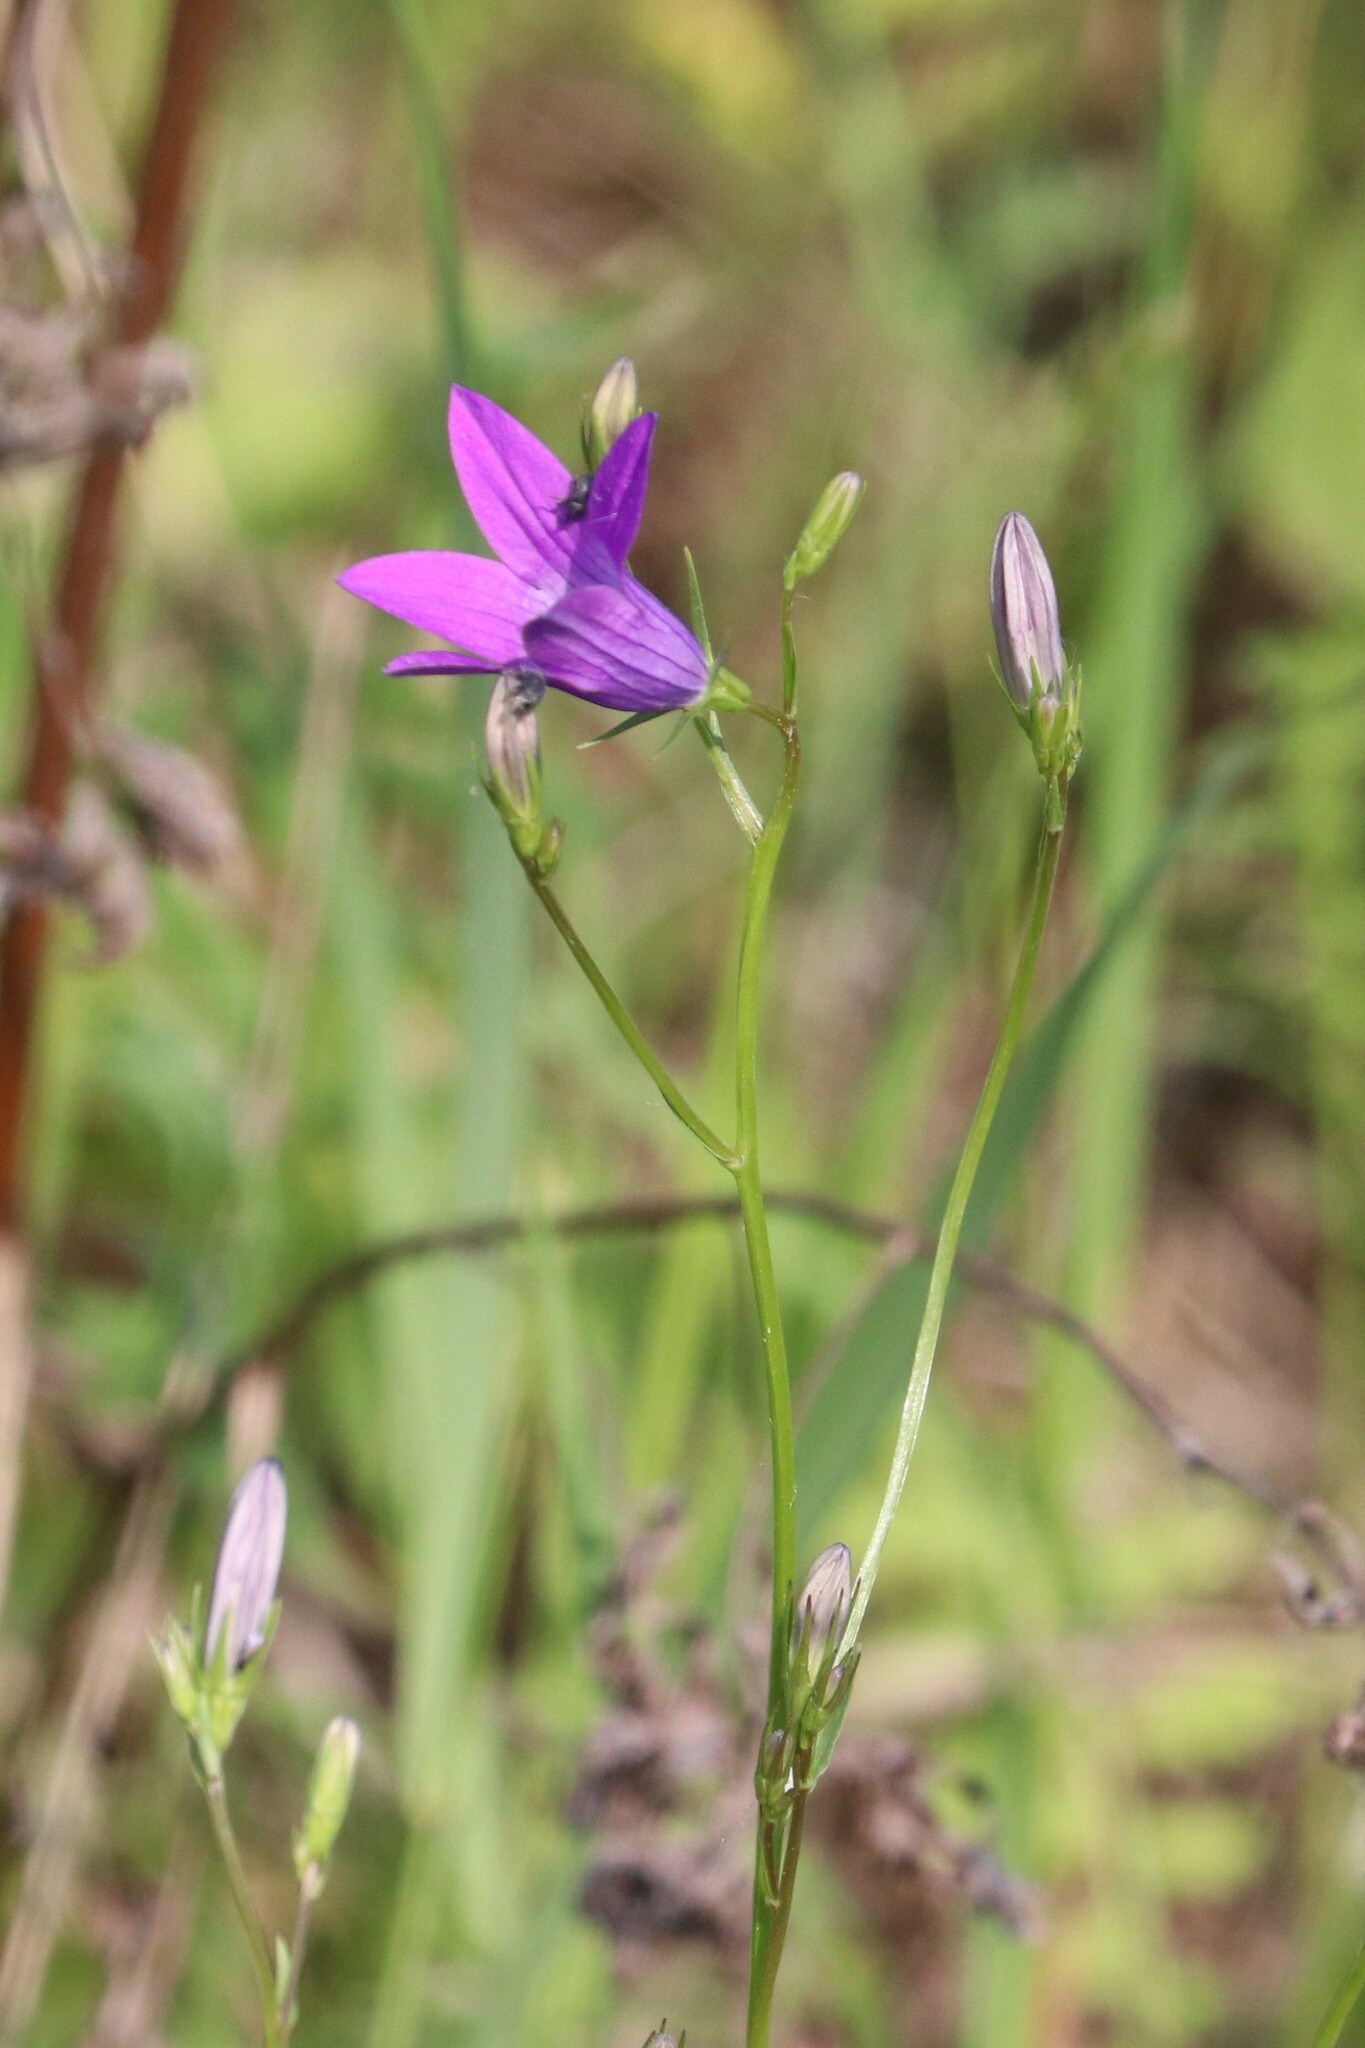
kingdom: Plantae
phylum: Tracheophyta
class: Magnoliopsida
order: Asterales
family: Campanulaceae
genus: Campanula
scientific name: Campanula patula
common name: Spreading bellflower
